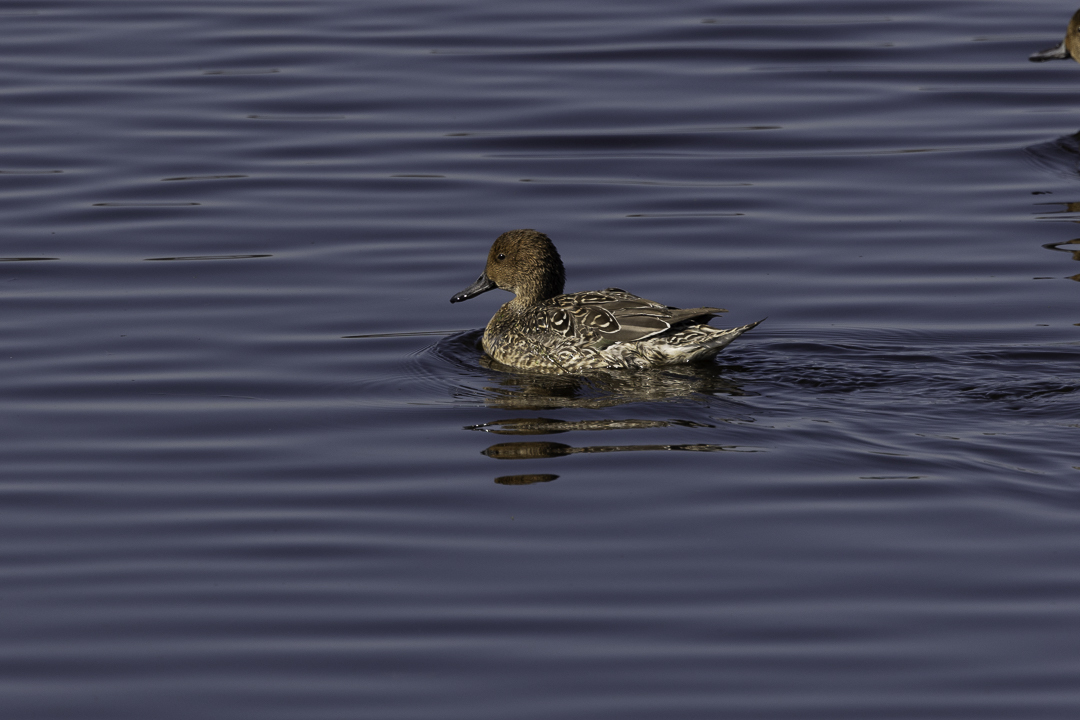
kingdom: Animalia
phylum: Chordata
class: Aves
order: Anseriformes
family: Anatidae
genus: Anas
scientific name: Anas acuta
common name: Northern pintail
